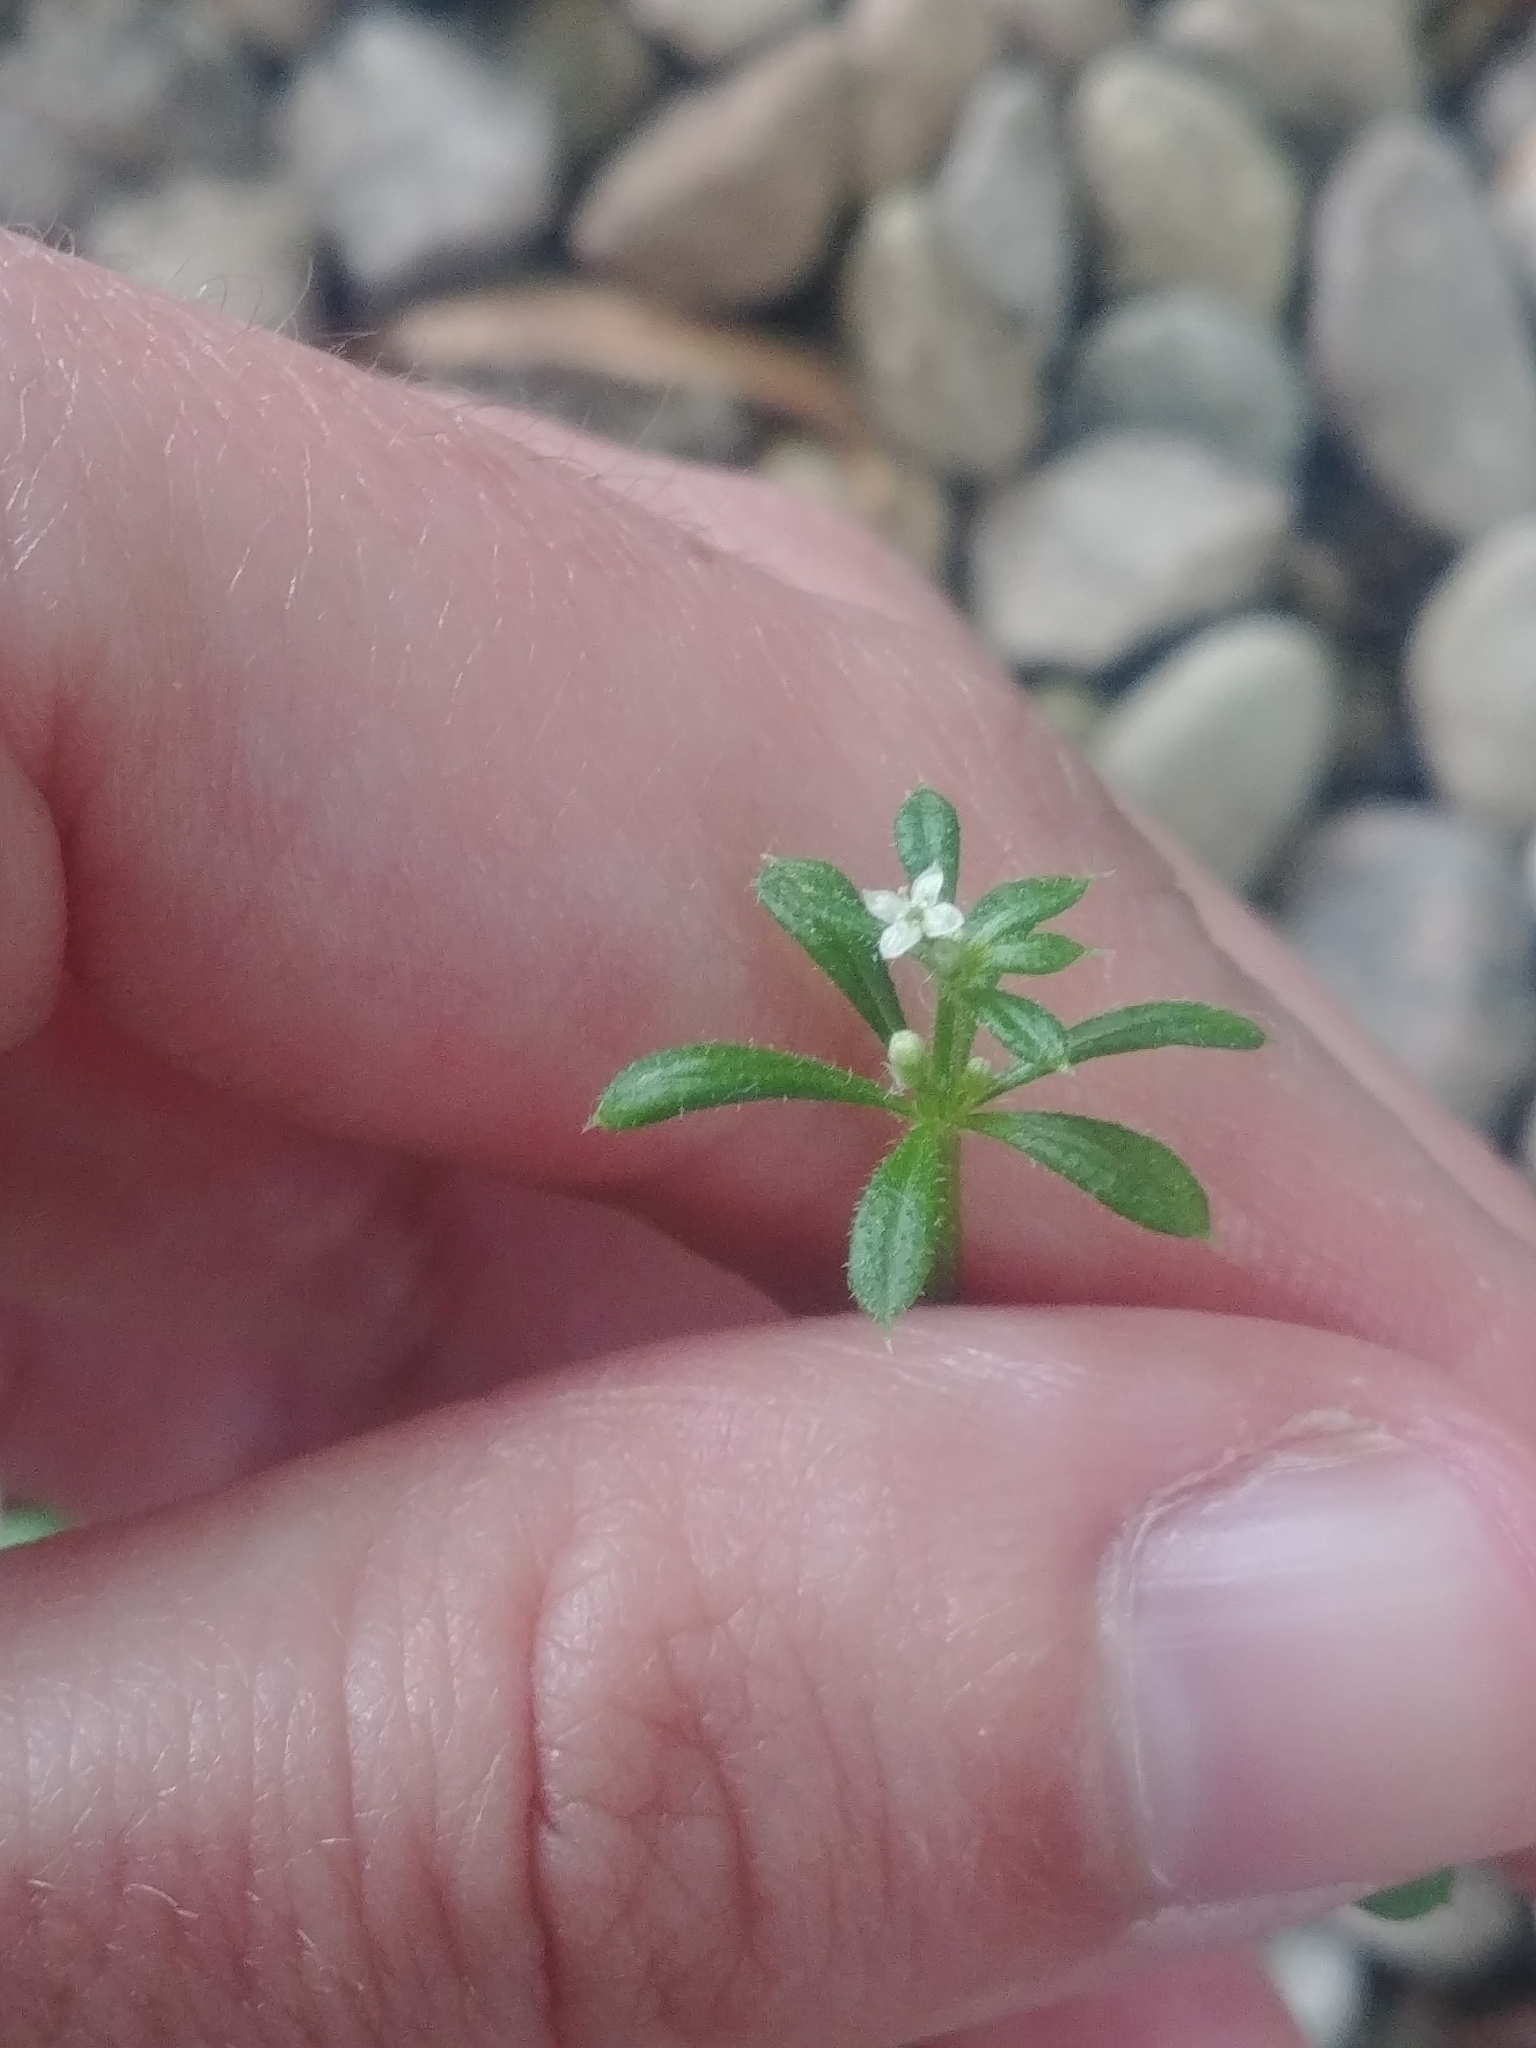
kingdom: Plantae
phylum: Tracheophyta
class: Magnoliopsida
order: Gentianales
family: Rubiaceae
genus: Galium
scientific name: Galium aparine
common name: Cleavers
